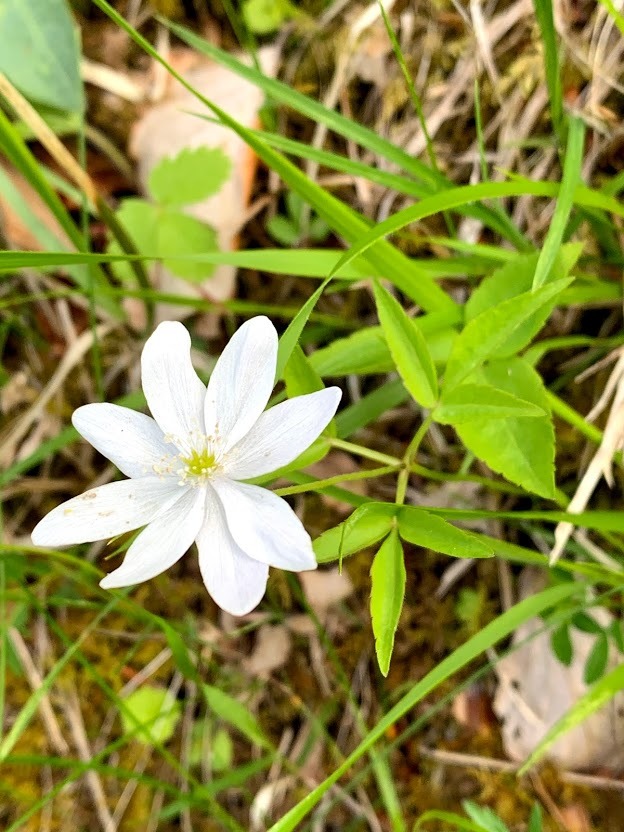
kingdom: Plantae
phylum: Tracheophyta
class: Magnoliopsida
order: Ranunculales
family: Ranunculaceae
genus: Anemone
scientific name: Anemone trifolia
